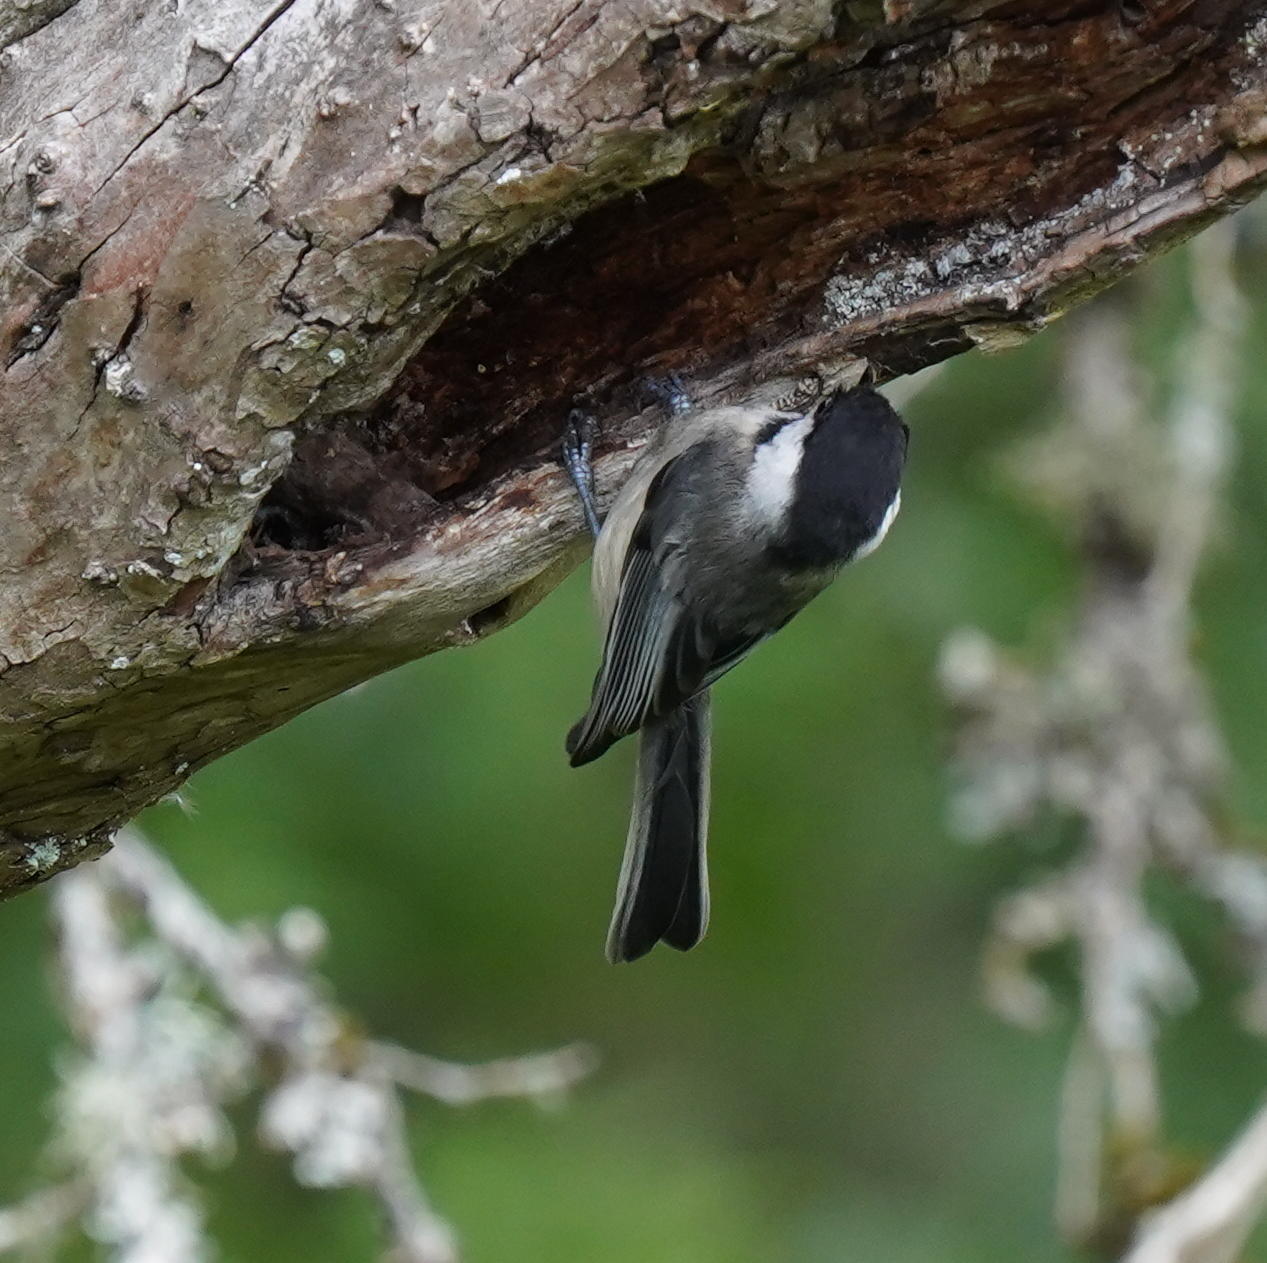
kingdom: Animalia
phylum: Chordata
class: Aves
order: Passeriformes
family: Paridae
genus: Poecile
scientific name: Poecile atricapillus
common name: Black-capped chickadee
